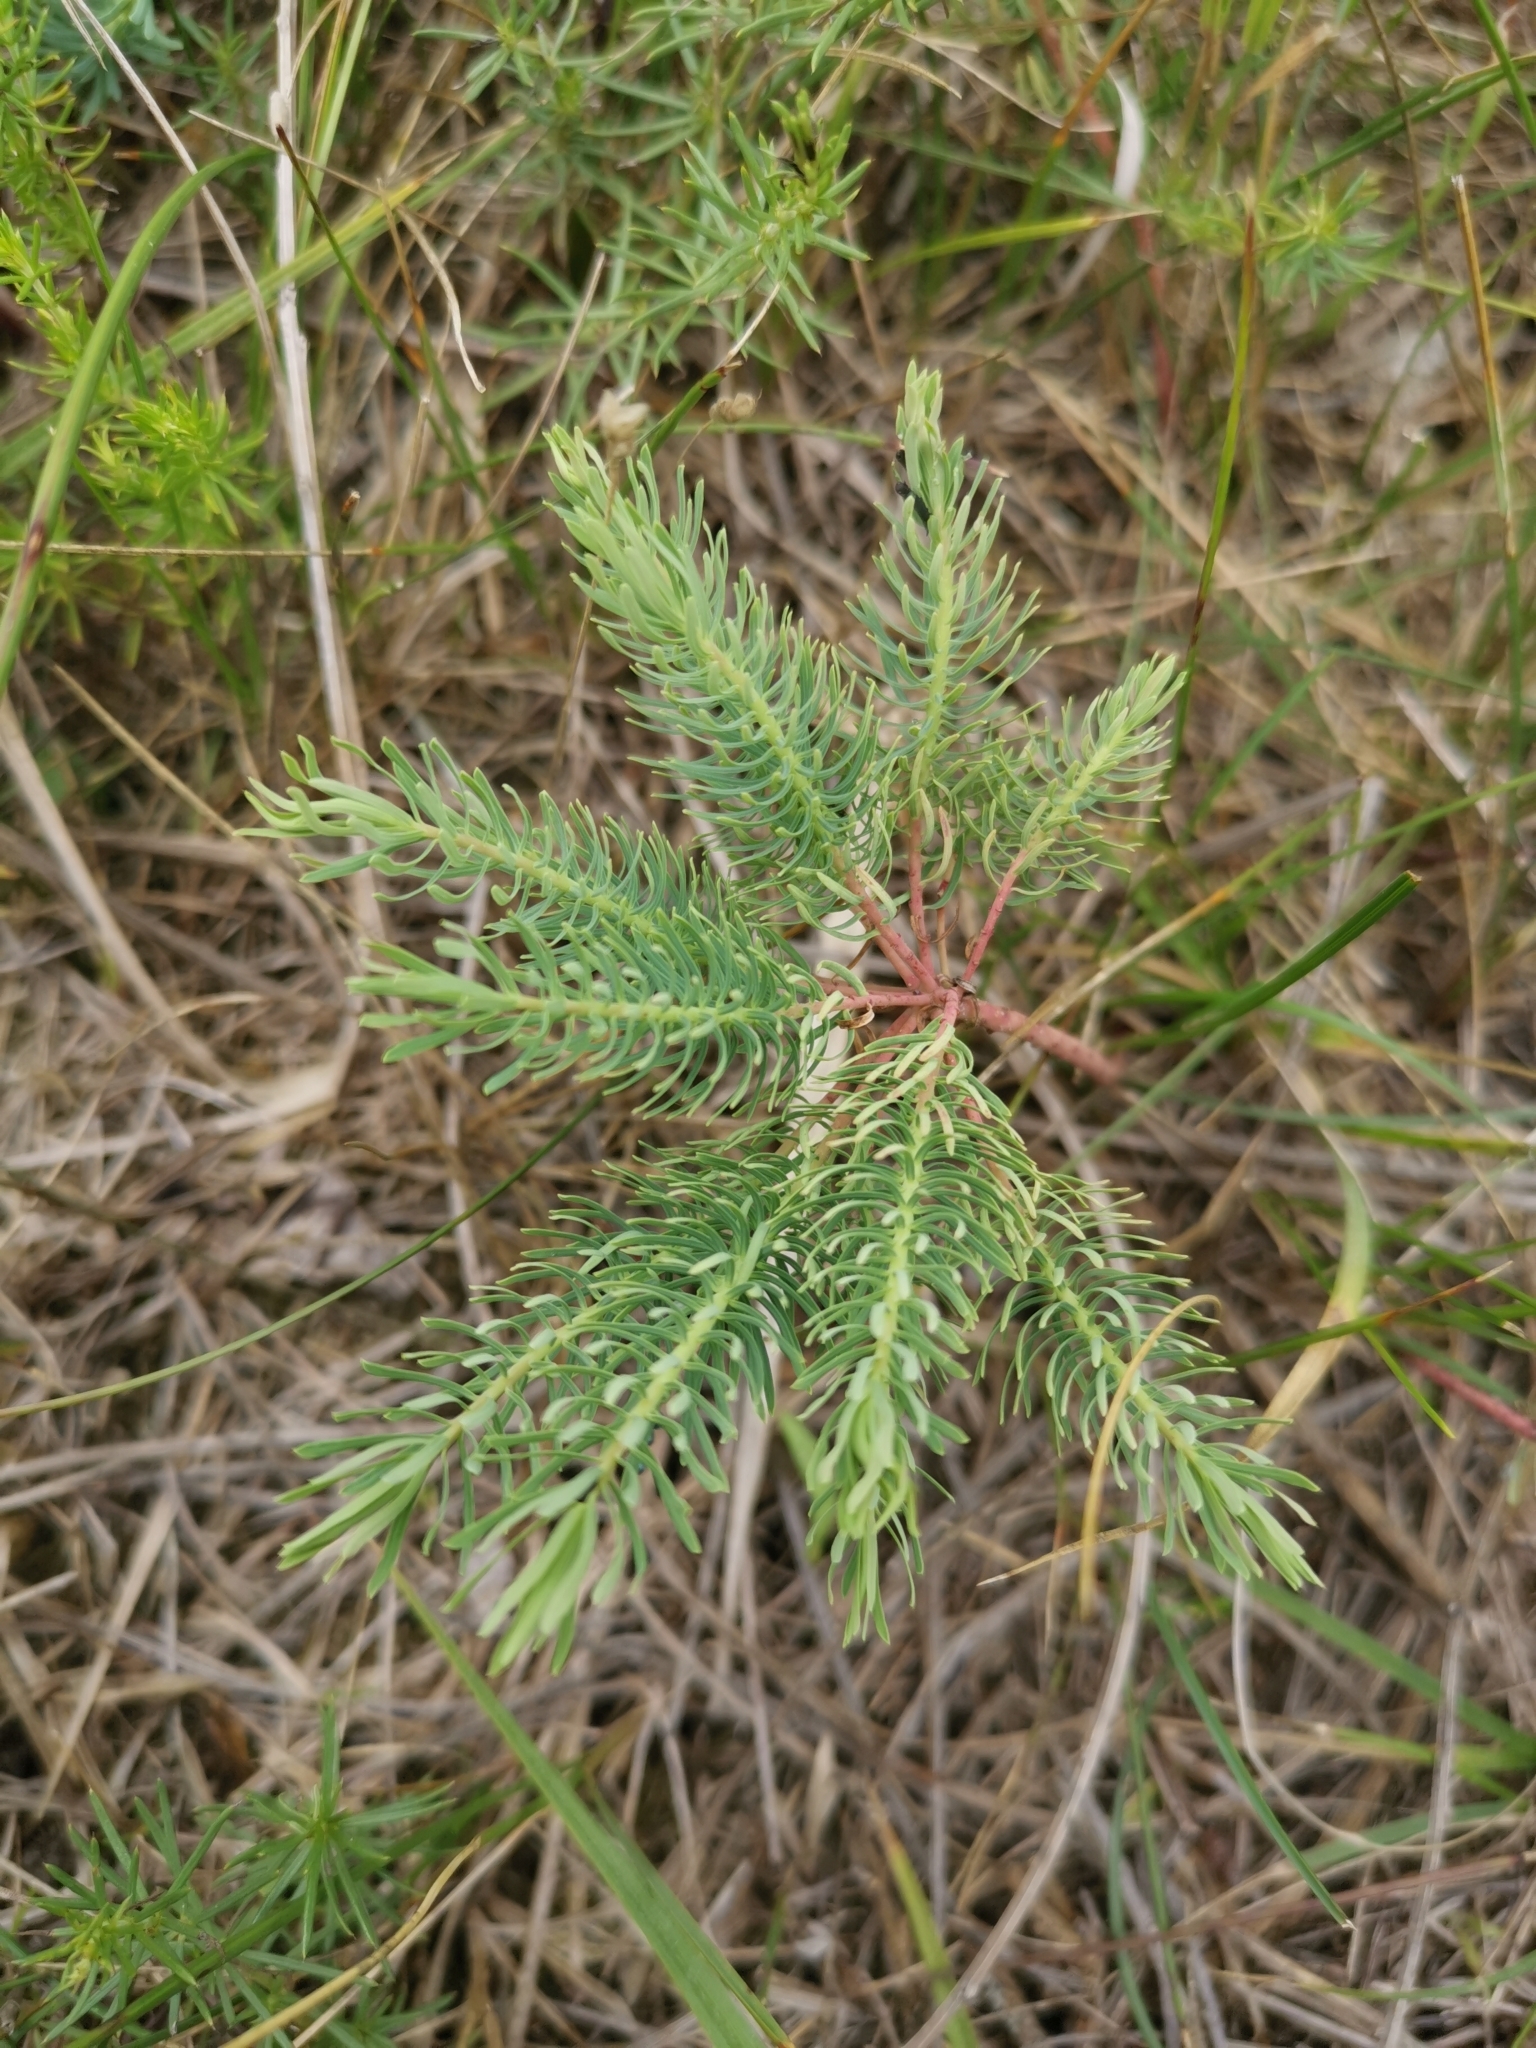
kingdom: Plantae
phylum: Tracheophyta
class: Magnoliopsida
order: Malpighiales
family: Euphorbiaceae
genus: Euphorbia
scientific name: Euphorbia cyparissias
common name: Cypress spurge
